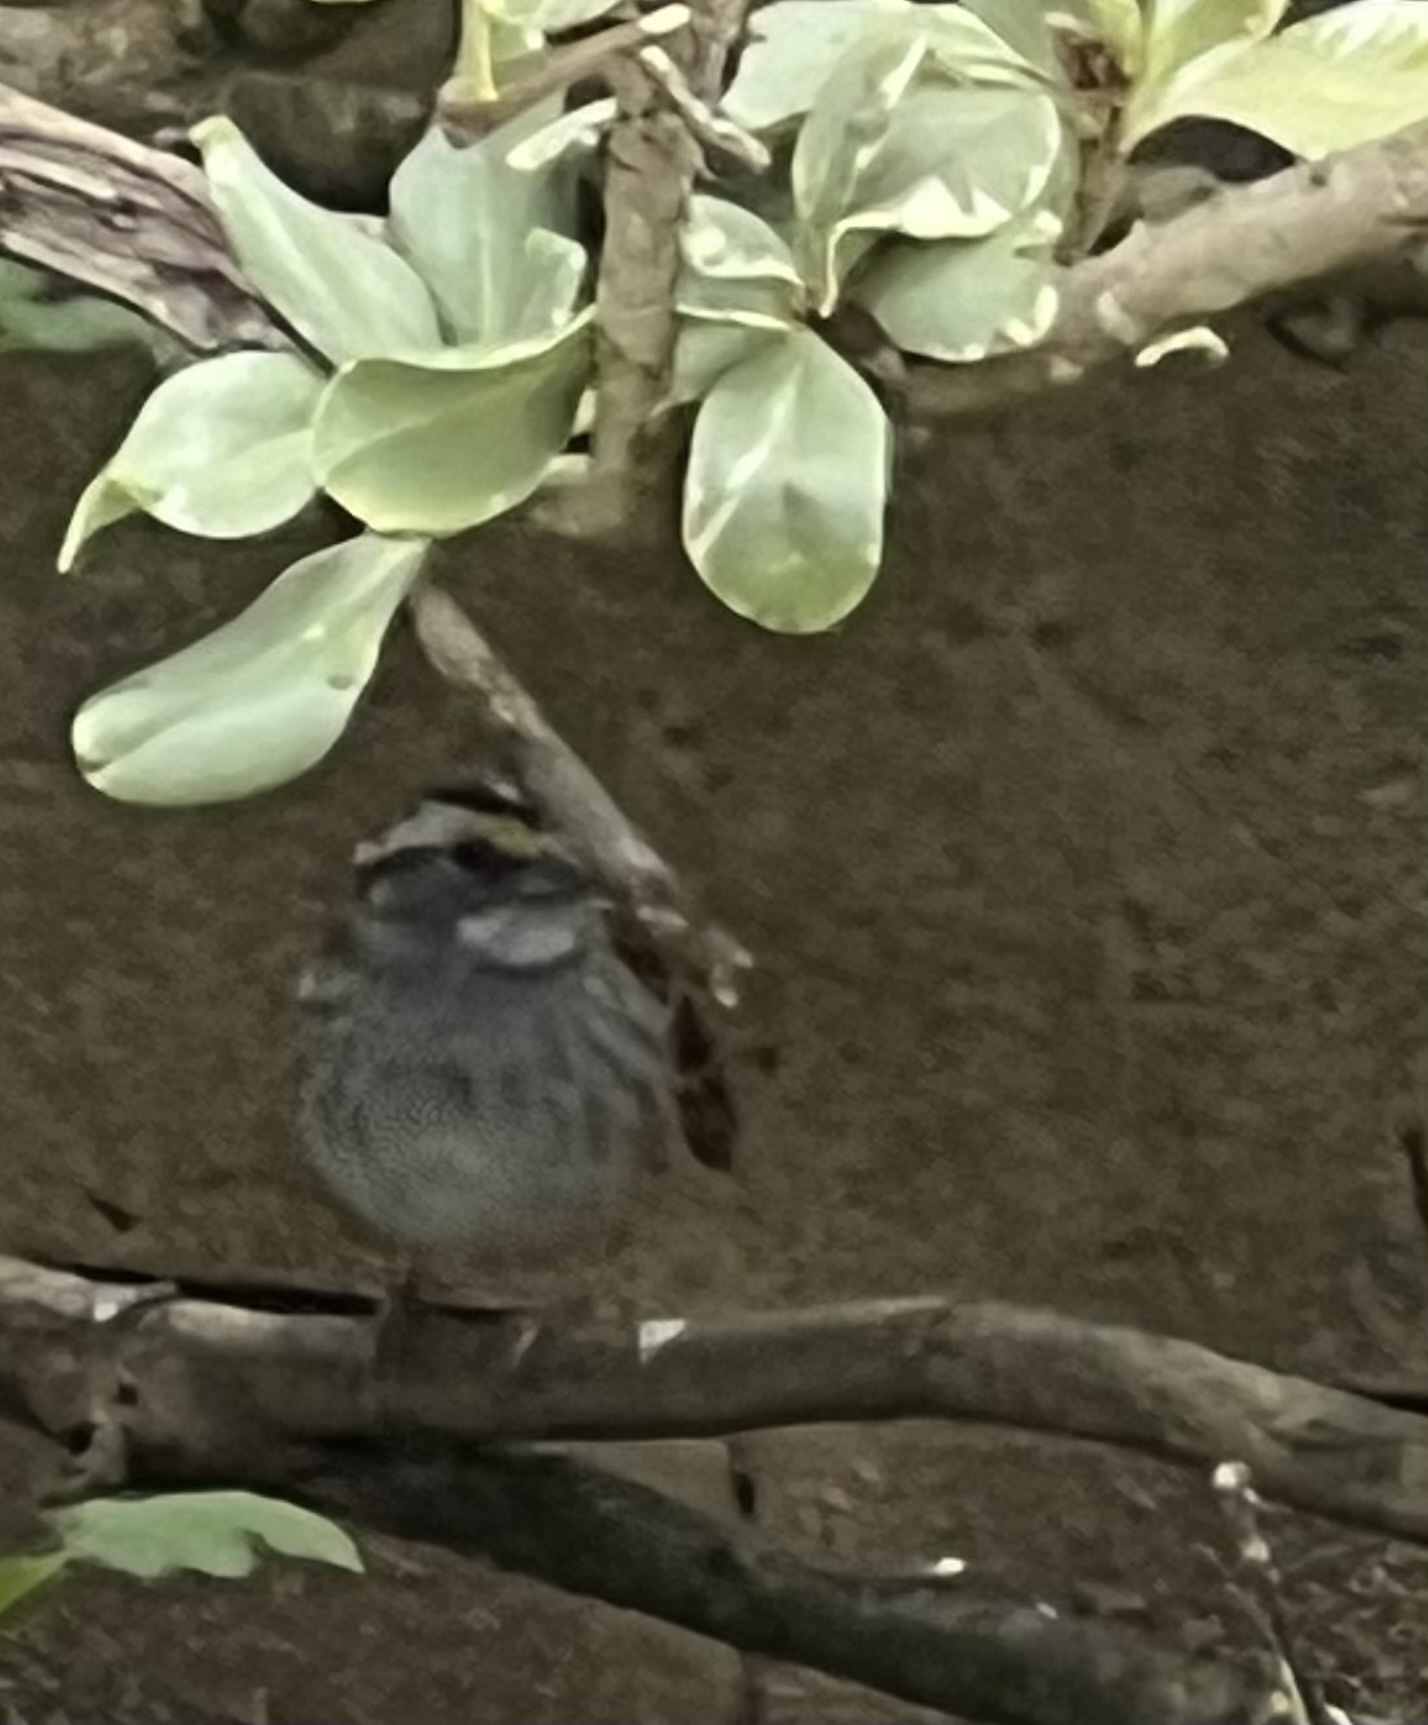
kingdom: Animalia
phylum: Chordata
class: Aves
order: Passeriformes
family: Passerellidae
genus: Zonotrichia
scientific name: Zonotrichia albicollis
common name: White-throated sparrow
